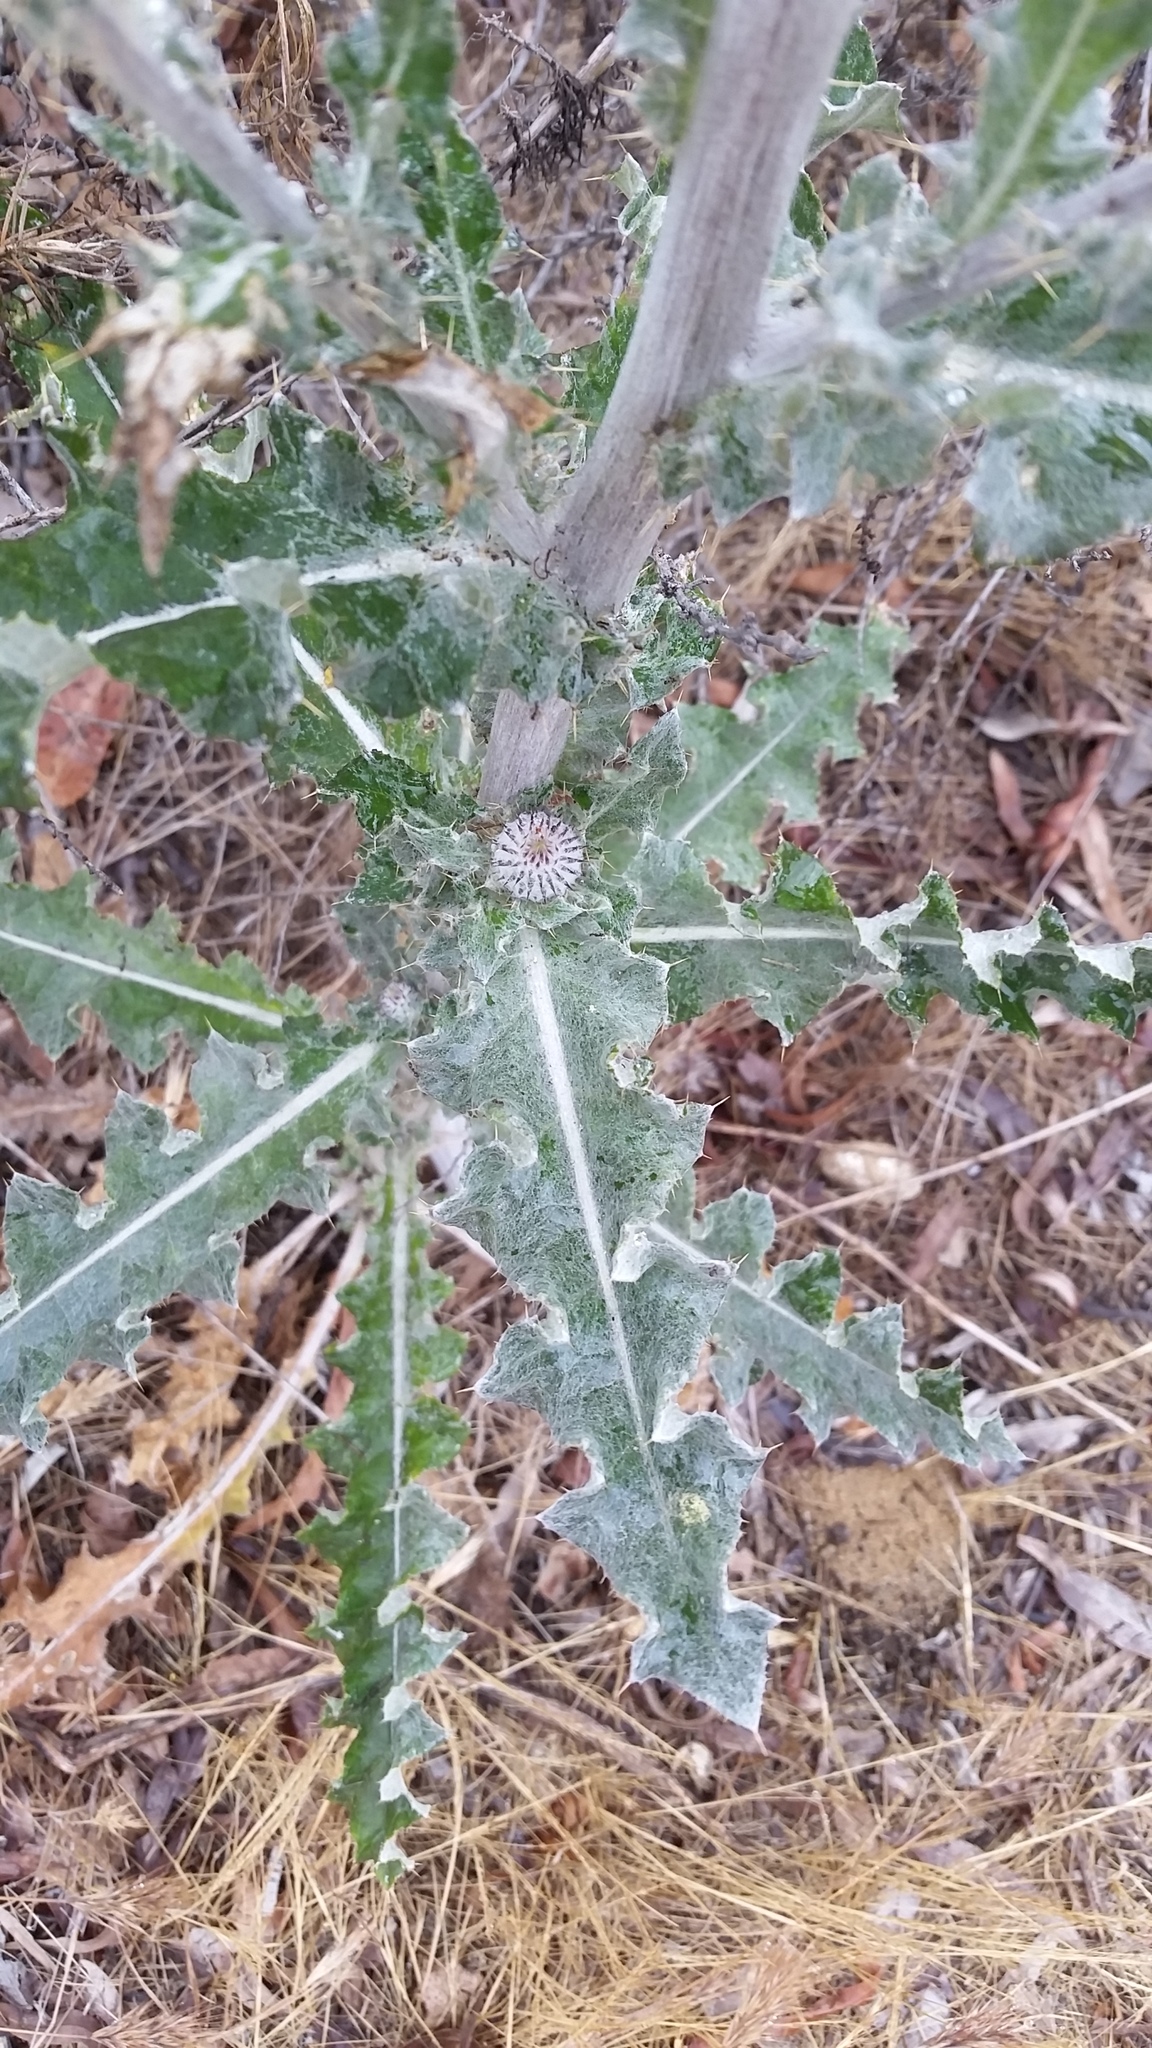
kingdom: Plantae
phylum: Tracheophyta
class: Magnoliopsida
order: Asterales
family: Asteraceae
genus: Cirsium
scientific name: Cirsium occidentale
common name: Western thistle
